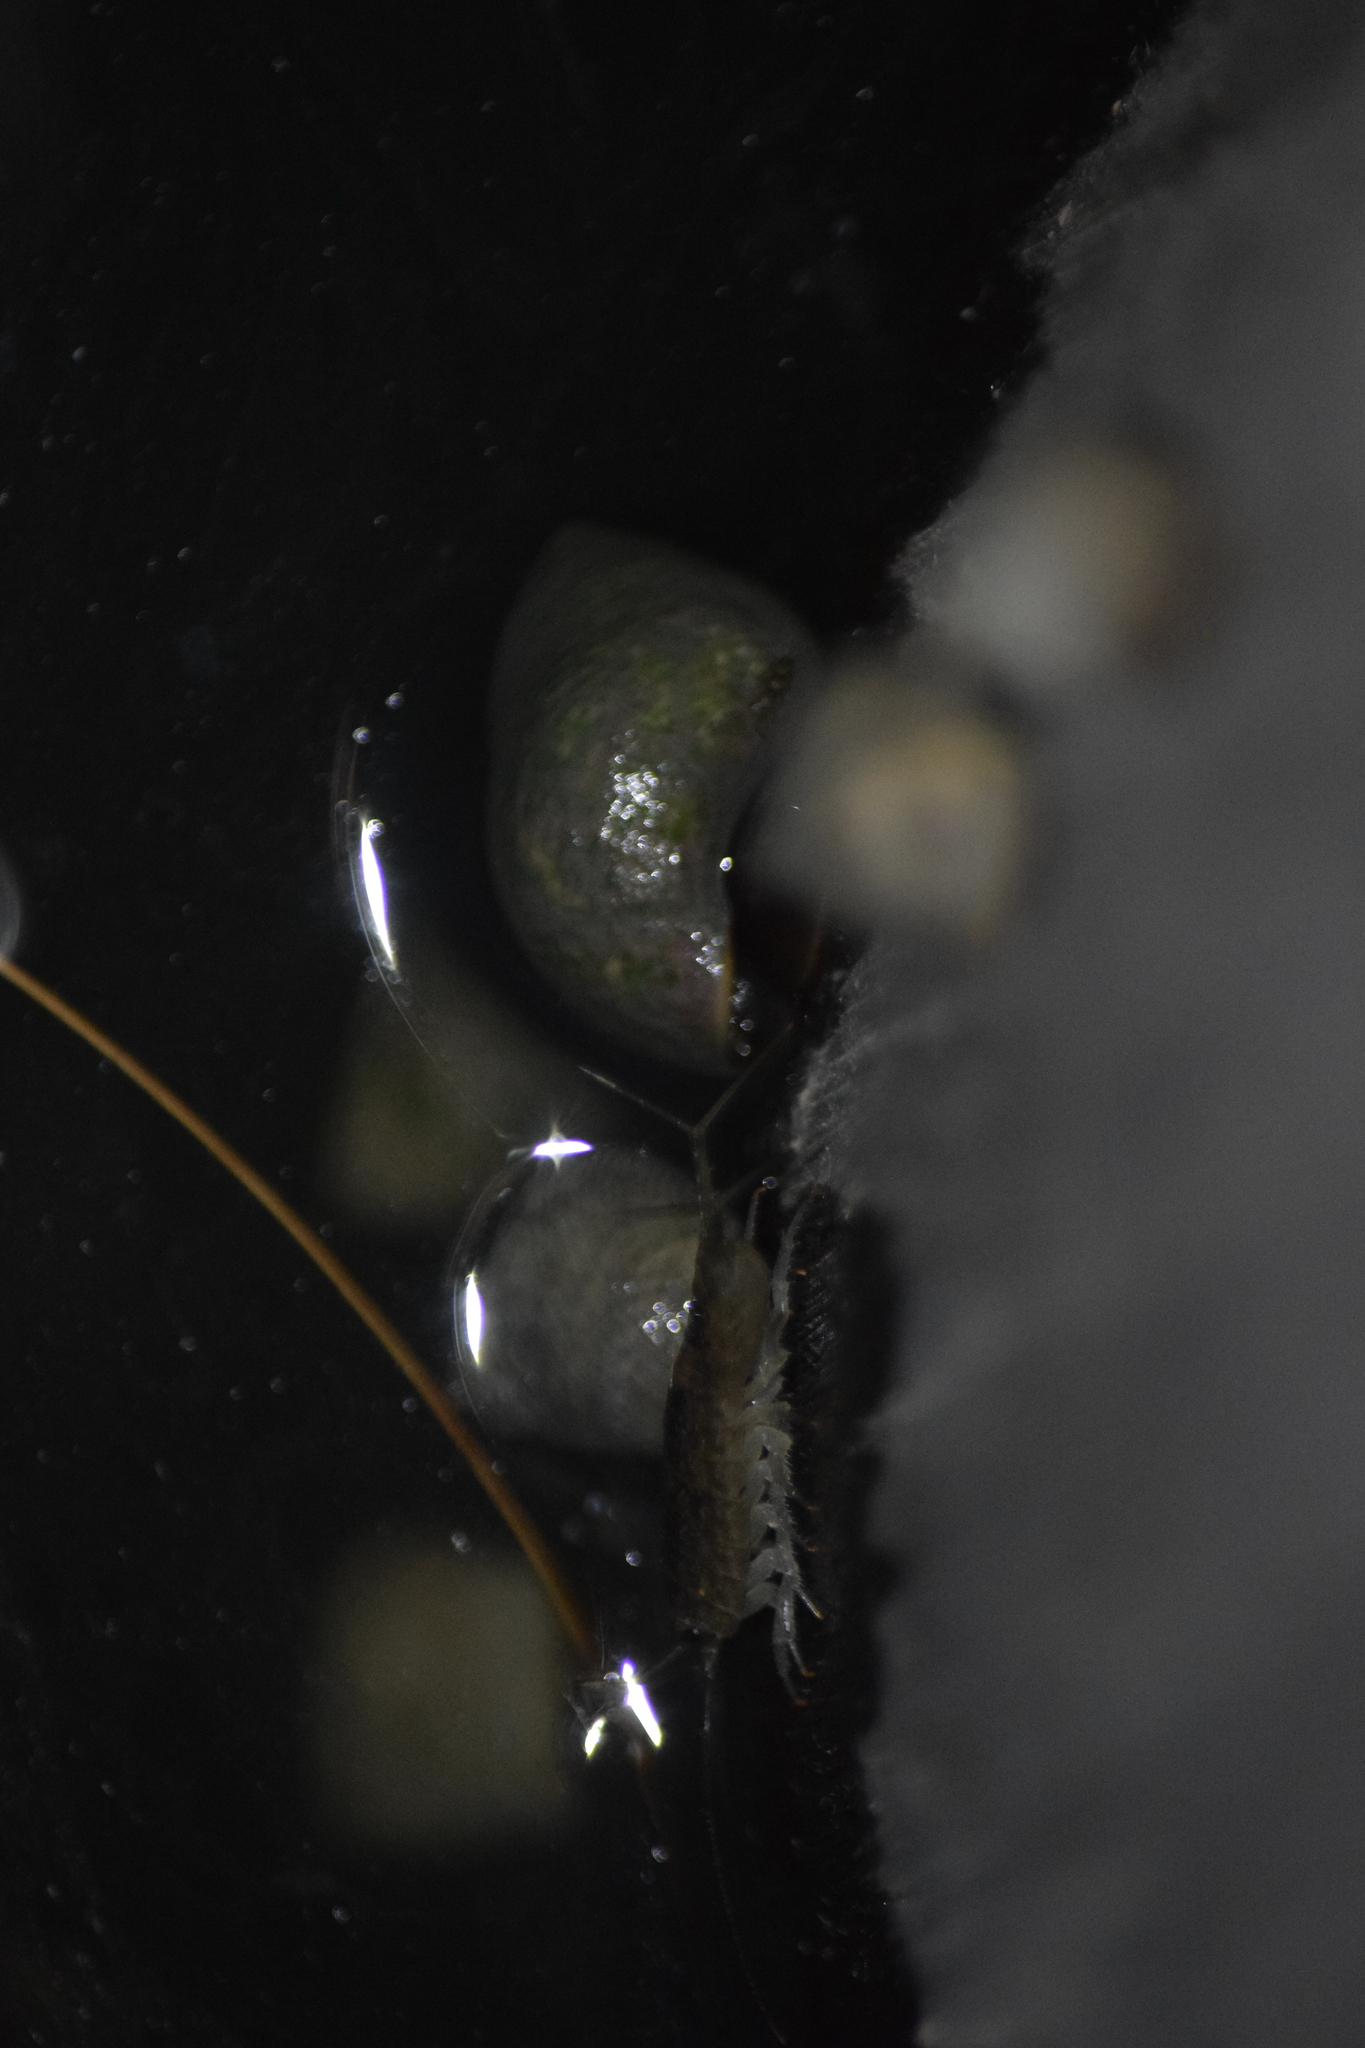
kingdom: Animalia
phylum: Arthropoda
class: Malacostraca
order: Isopoda
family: Ligiidae
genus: Ligia
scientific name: Ligia exotica
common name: Wharf roach
